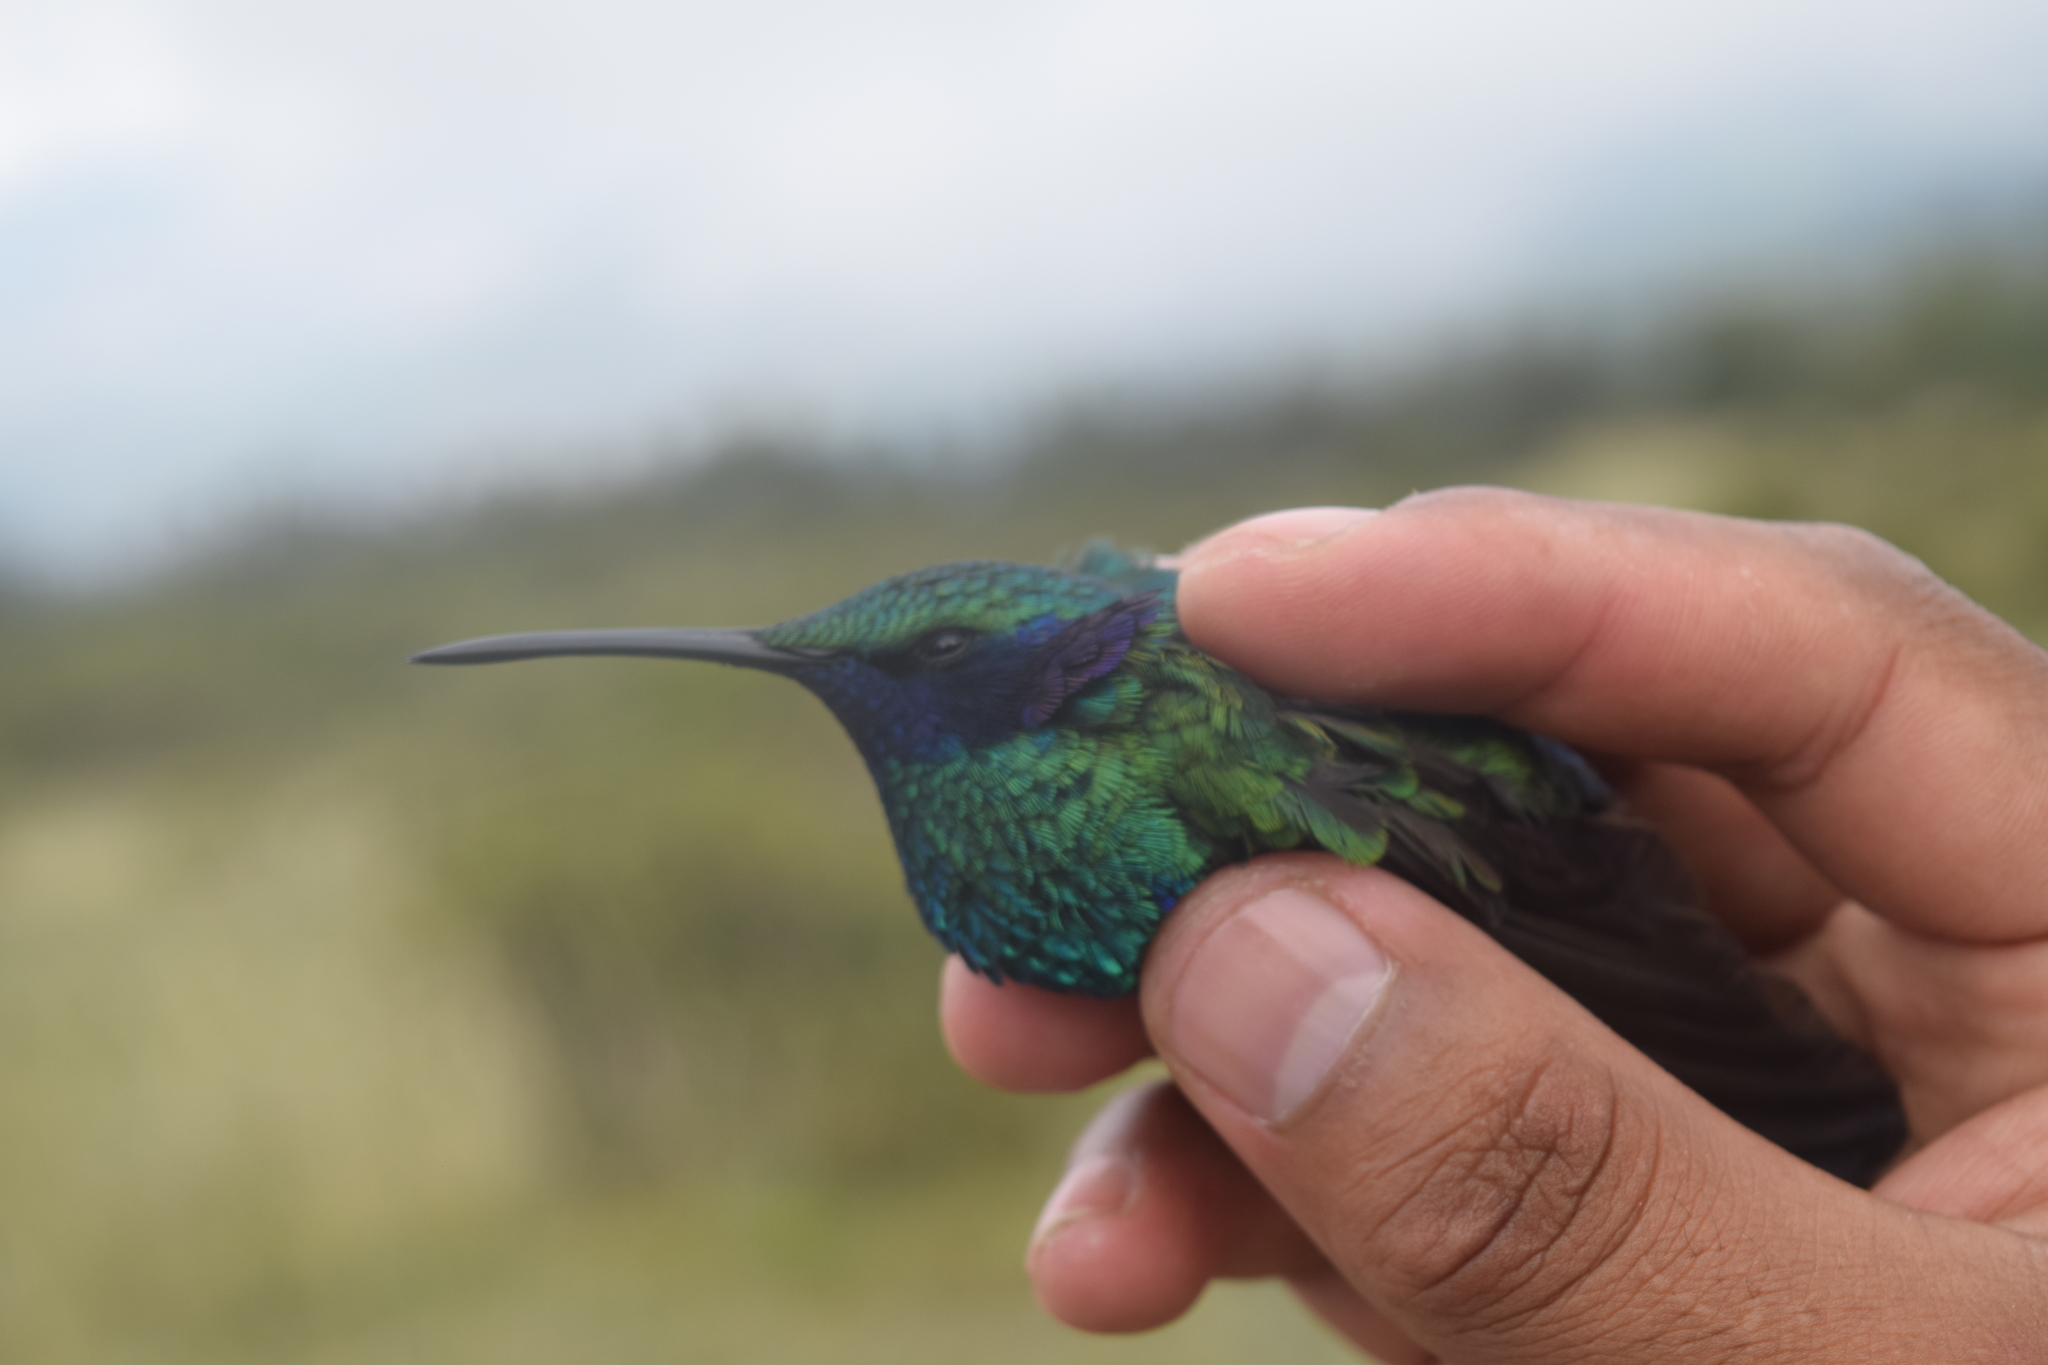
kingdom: Animalia
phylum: Chordata
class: Aves
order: Apodiformes
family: Trochilidae
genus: Colibri
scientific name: Colibri coruscans
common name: Sparkling violetear
